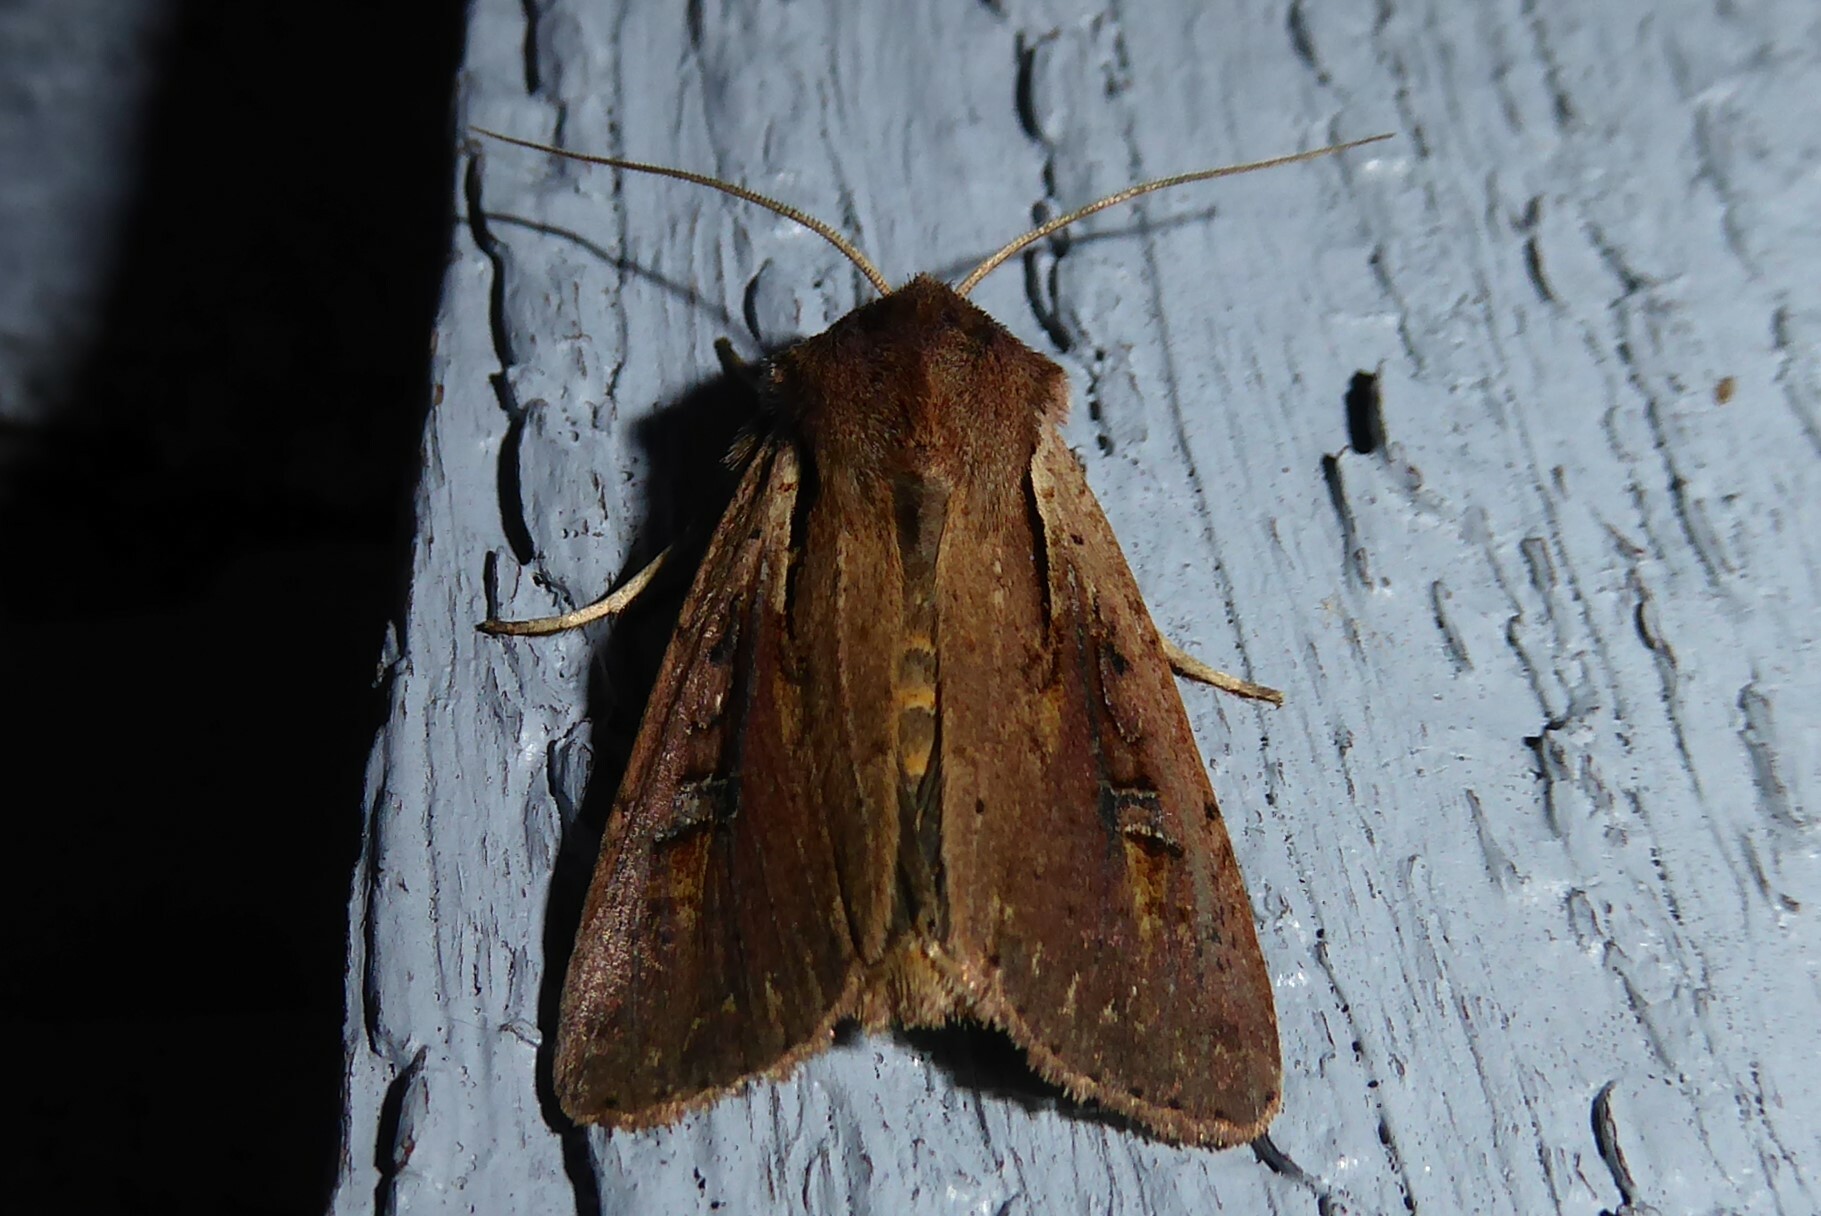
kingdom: Animalia
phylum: Arthropoda
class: Insecta
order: Lepidoptera
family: Noctuidae
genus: Ichneutica
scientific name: Ichneutica atristriga
